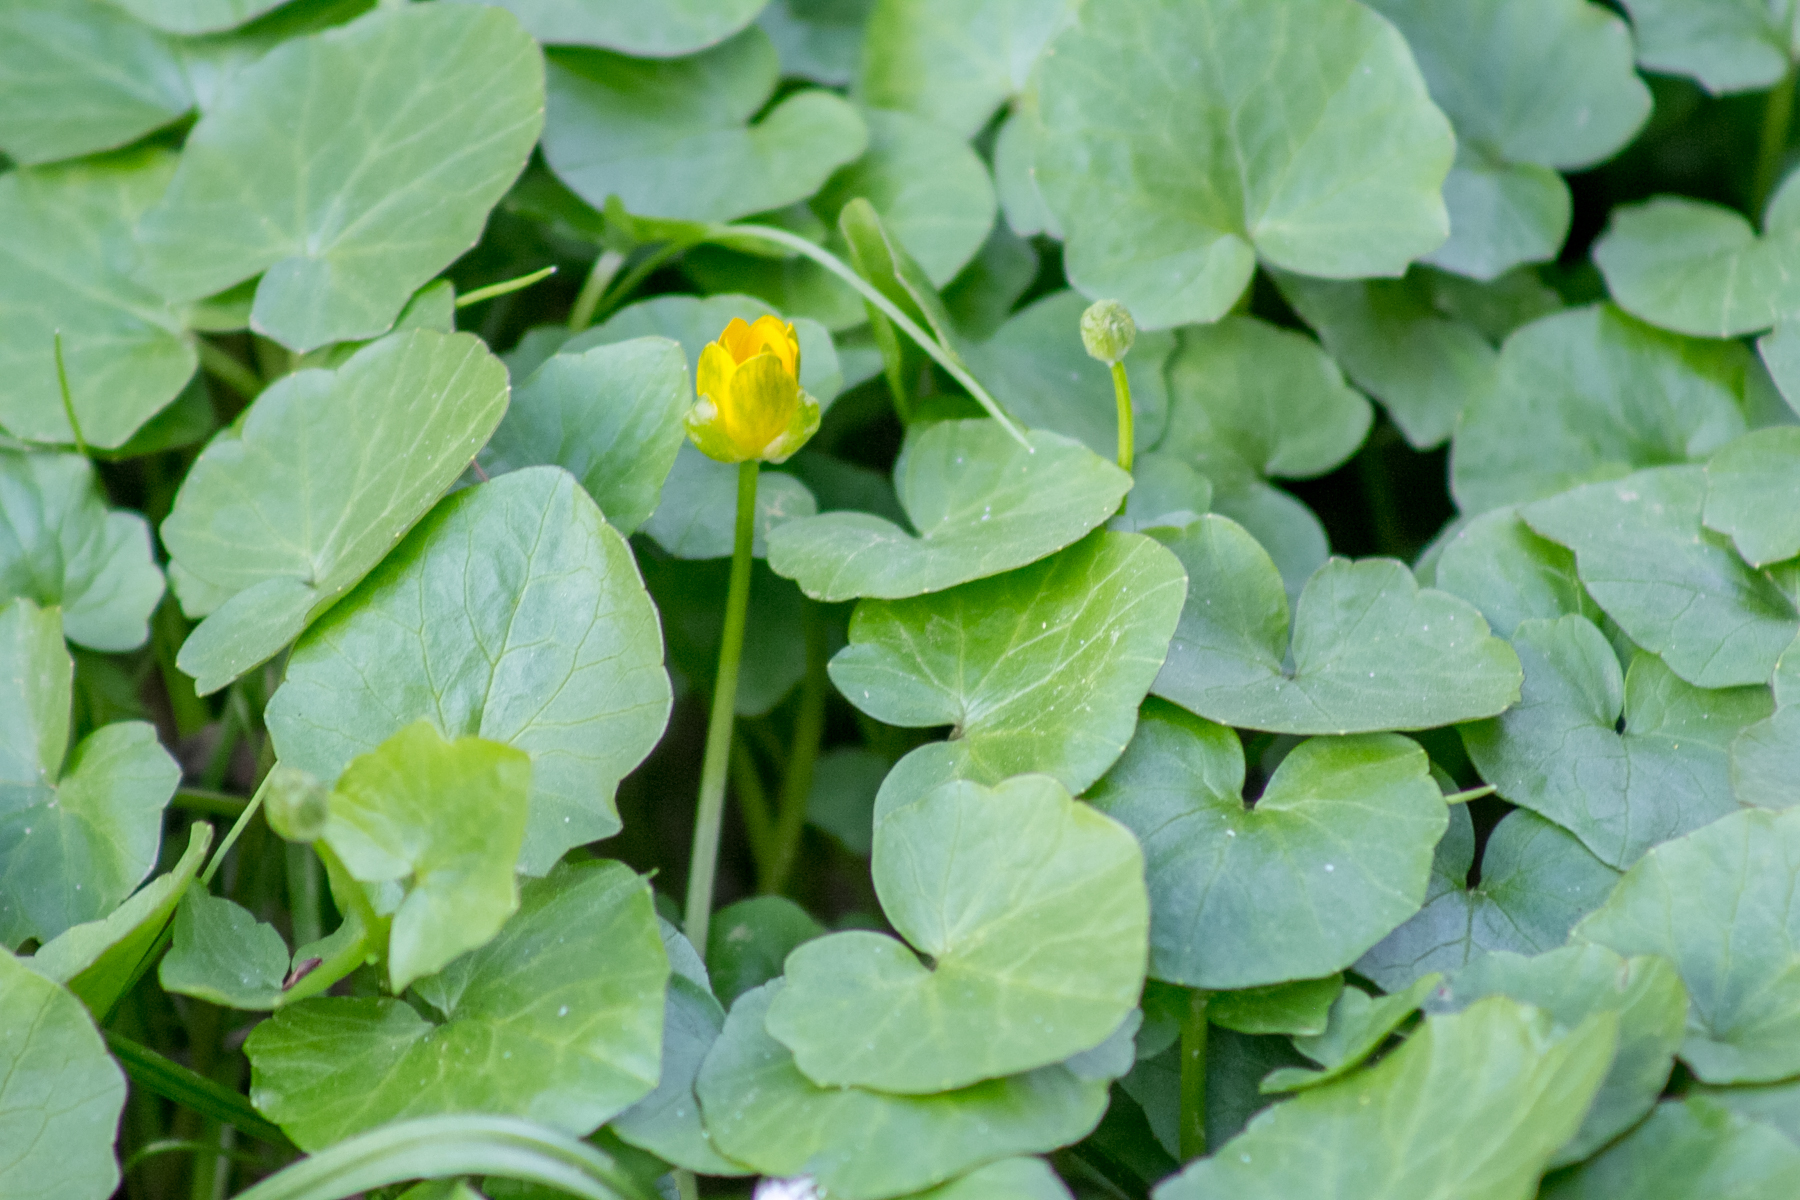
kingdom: Plantae
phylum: Tracheophyta
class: Magnoliopsida
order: Ranunculales
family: Ranunculaceae
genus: Ficaria
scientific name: Ficaria verna
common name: Lesser celandine
